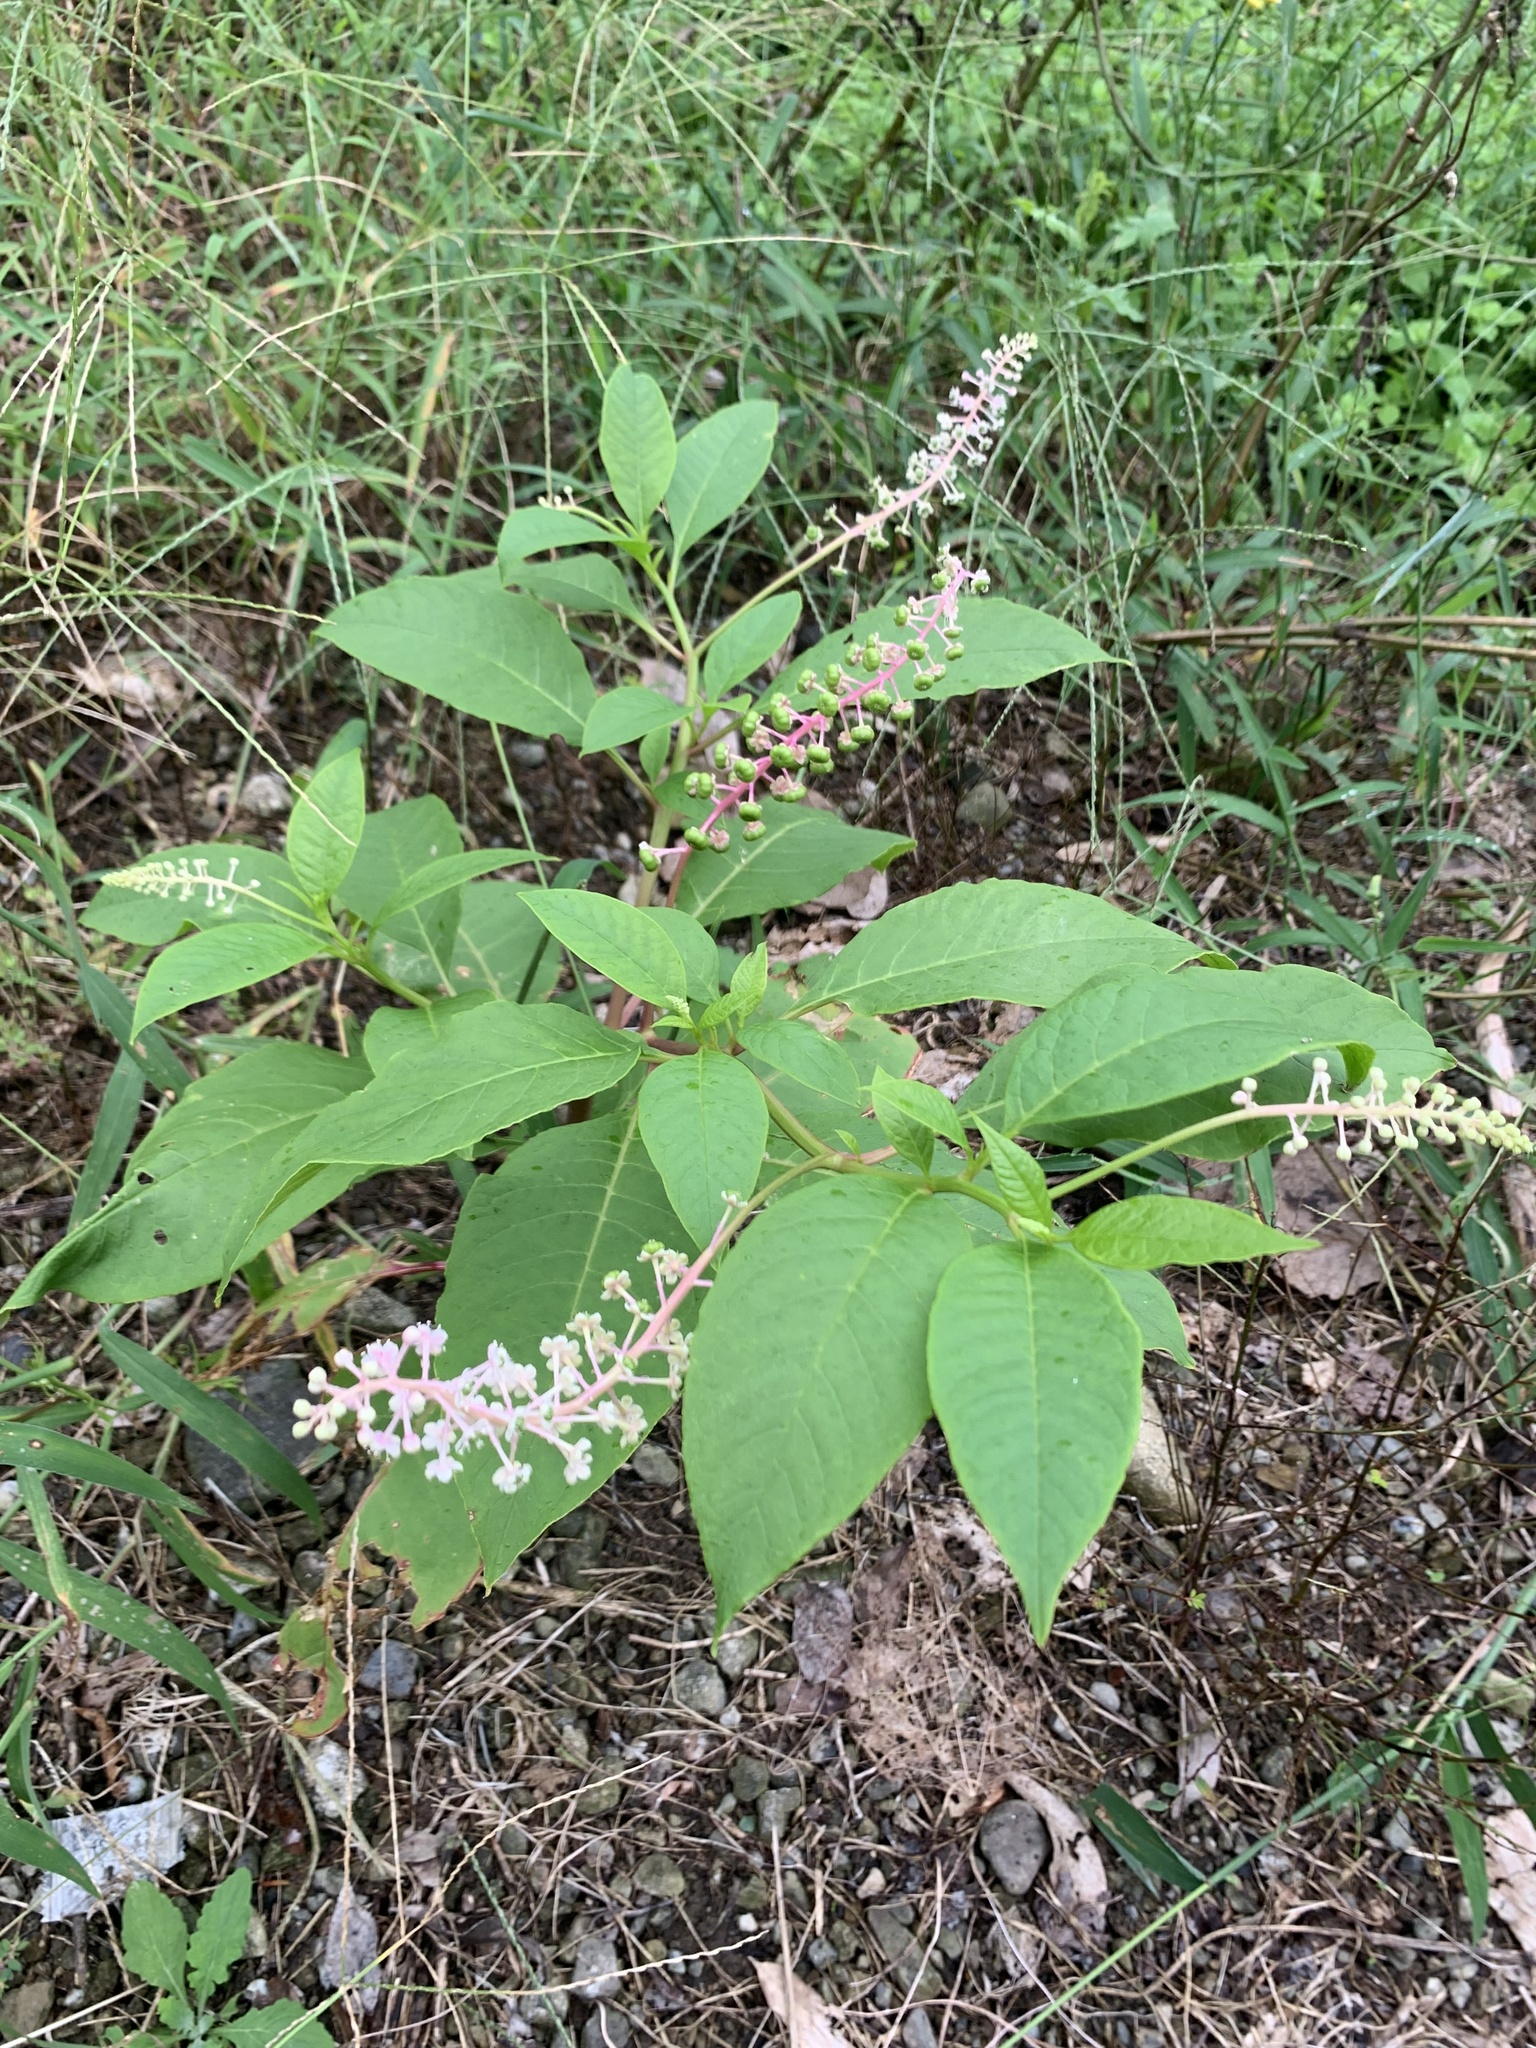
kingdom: Plantae
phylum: Tracheophyta
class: Magnoliopsida
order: Caryophyllales
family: Phytolaccaceae
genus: Phytolacca
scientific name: Phytolacca americana
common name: American pokeweed
